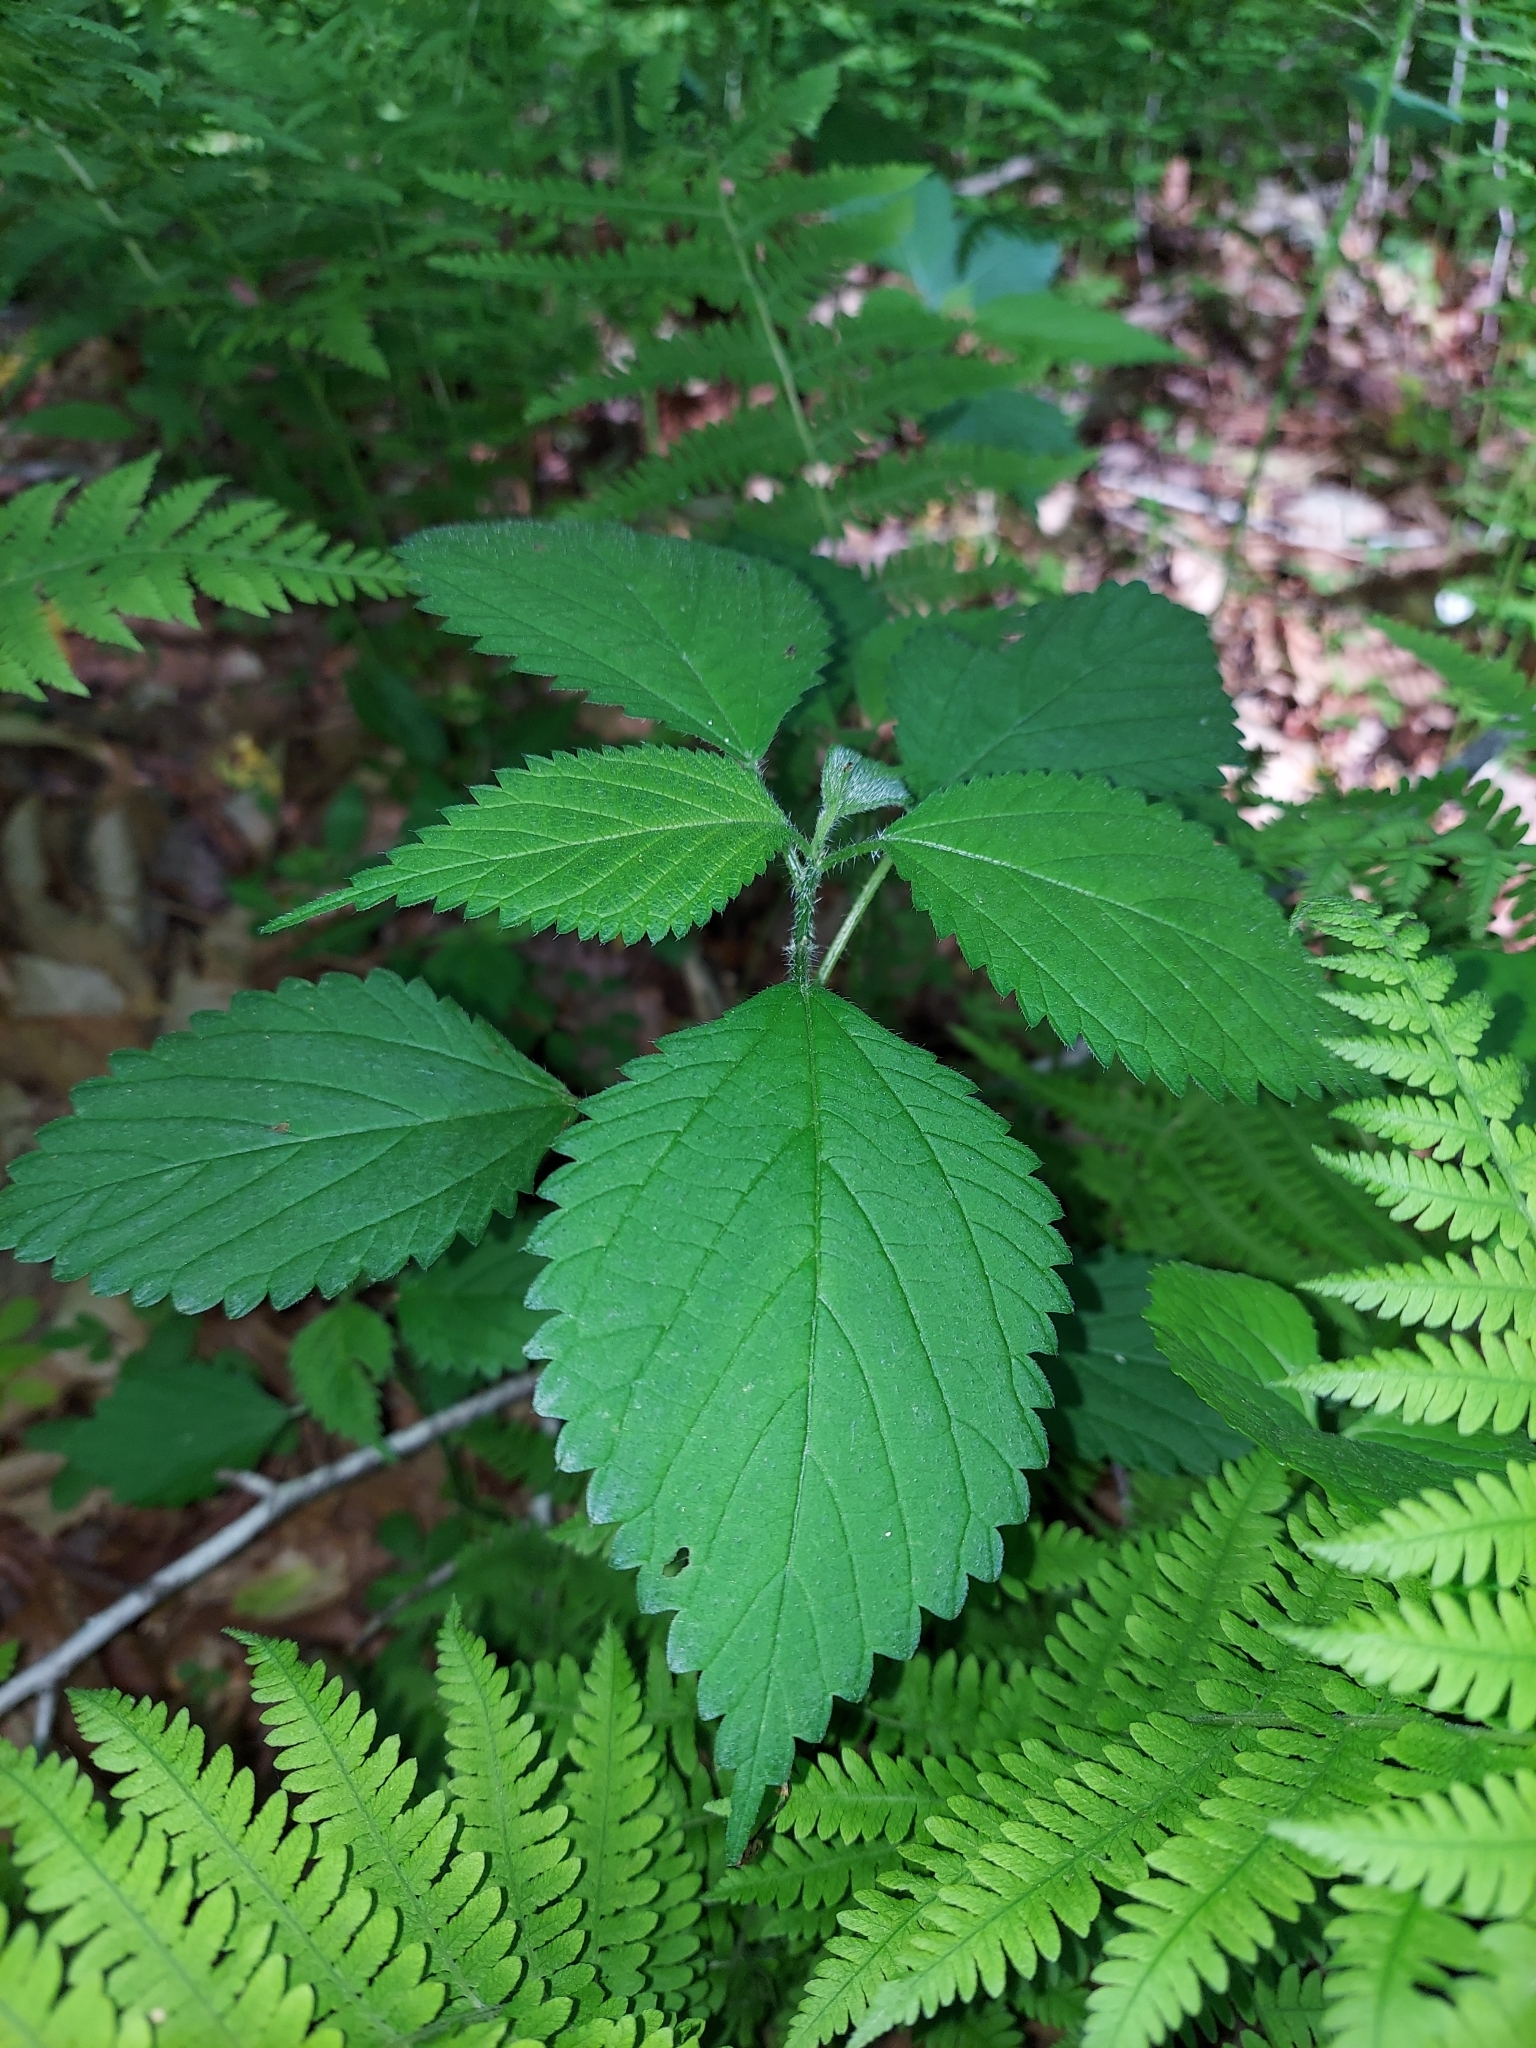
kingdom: Plantae
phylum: Tracheophyta
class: Magnoliopsida
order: Rosales
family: Urticaceae
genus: Laportea
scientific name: Laportea canadensis
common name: Canada nettle
